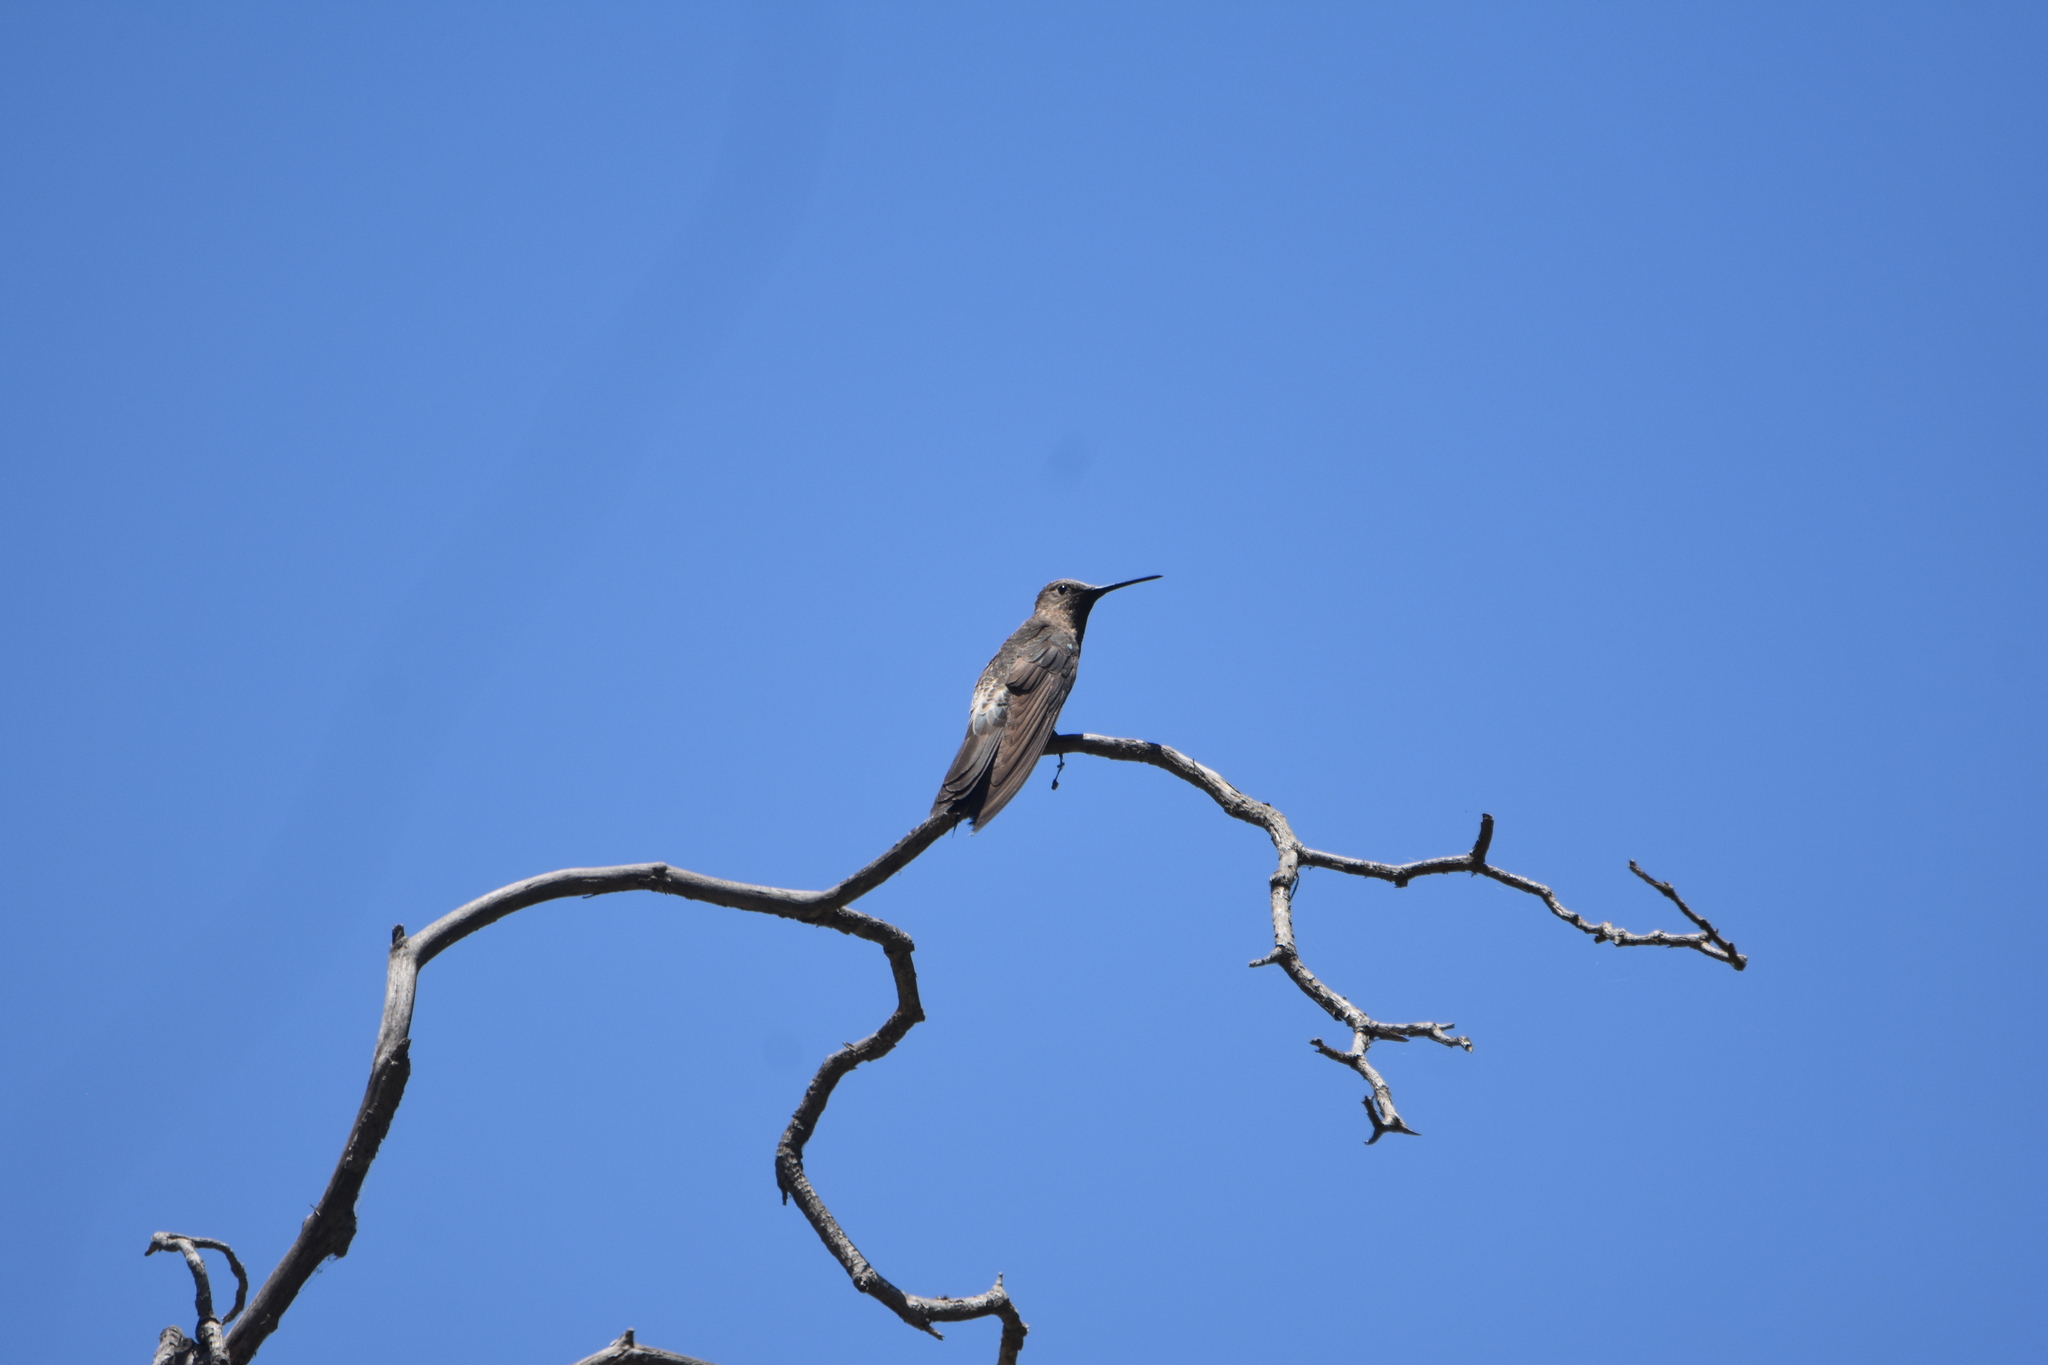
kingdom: Animalia
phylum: Chordata
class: Aves
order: Apodiformes
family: Trochilidae
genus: Patagona
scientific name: Patagona gigas
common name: Giant hummingbird
